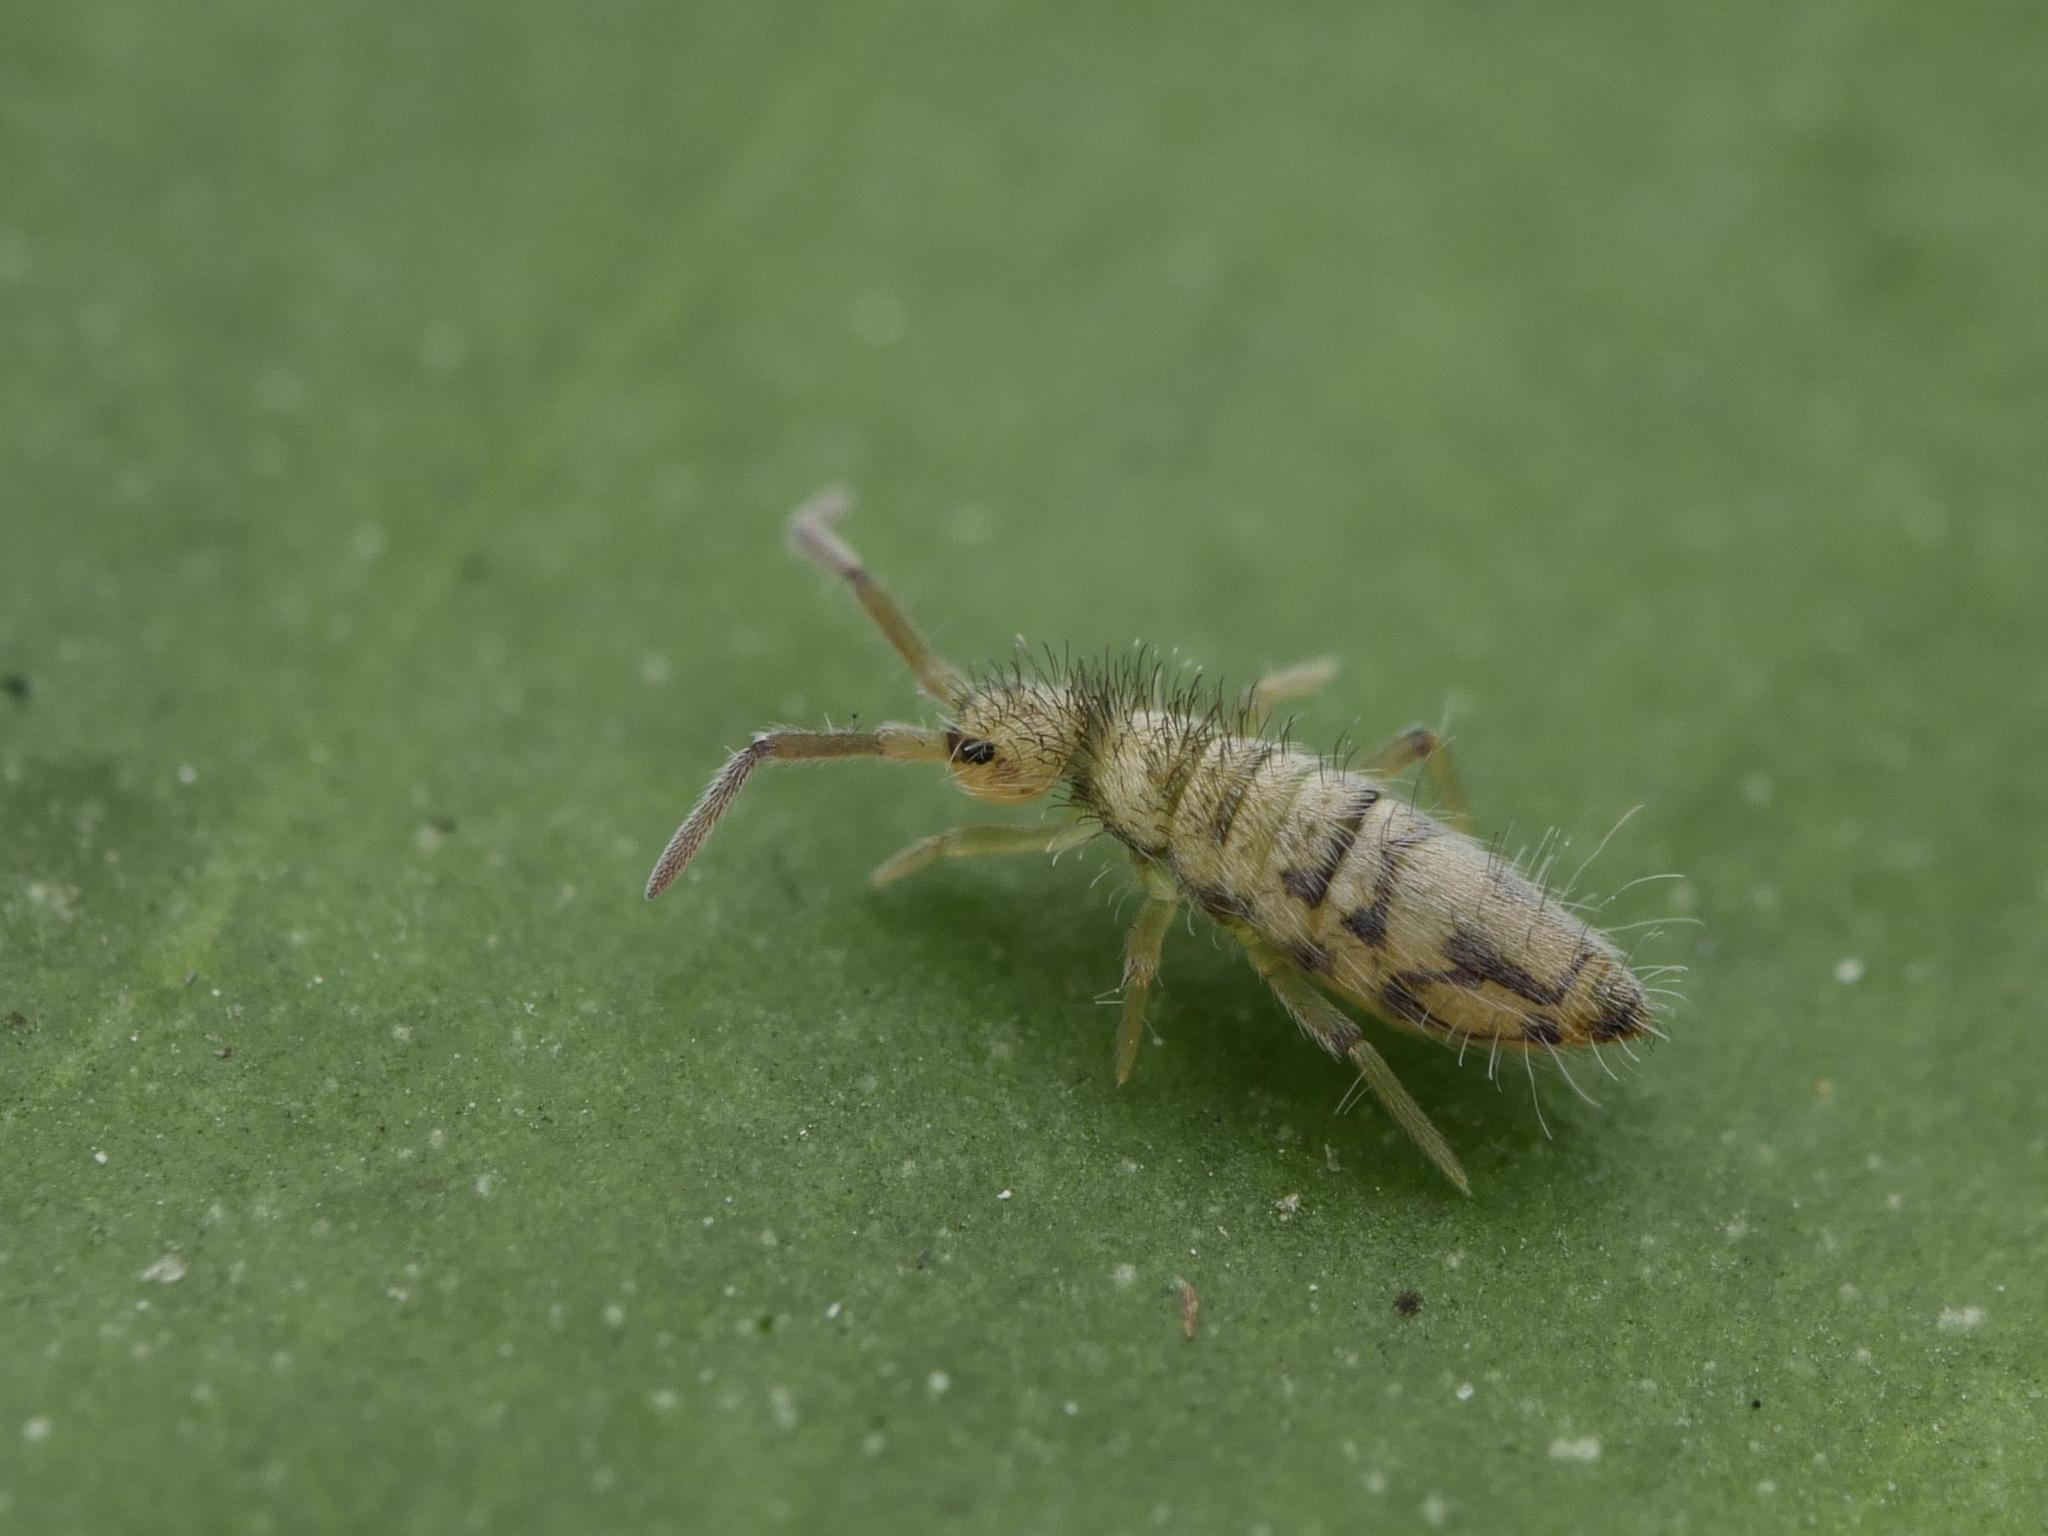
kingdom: Animalia
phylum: Arthropoda
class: Collembola
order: Entomobryomorpha
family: Entomobryidae
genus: Entomobrya
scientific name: Entomobrya nivalis
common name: Cosmopolitan springtail
